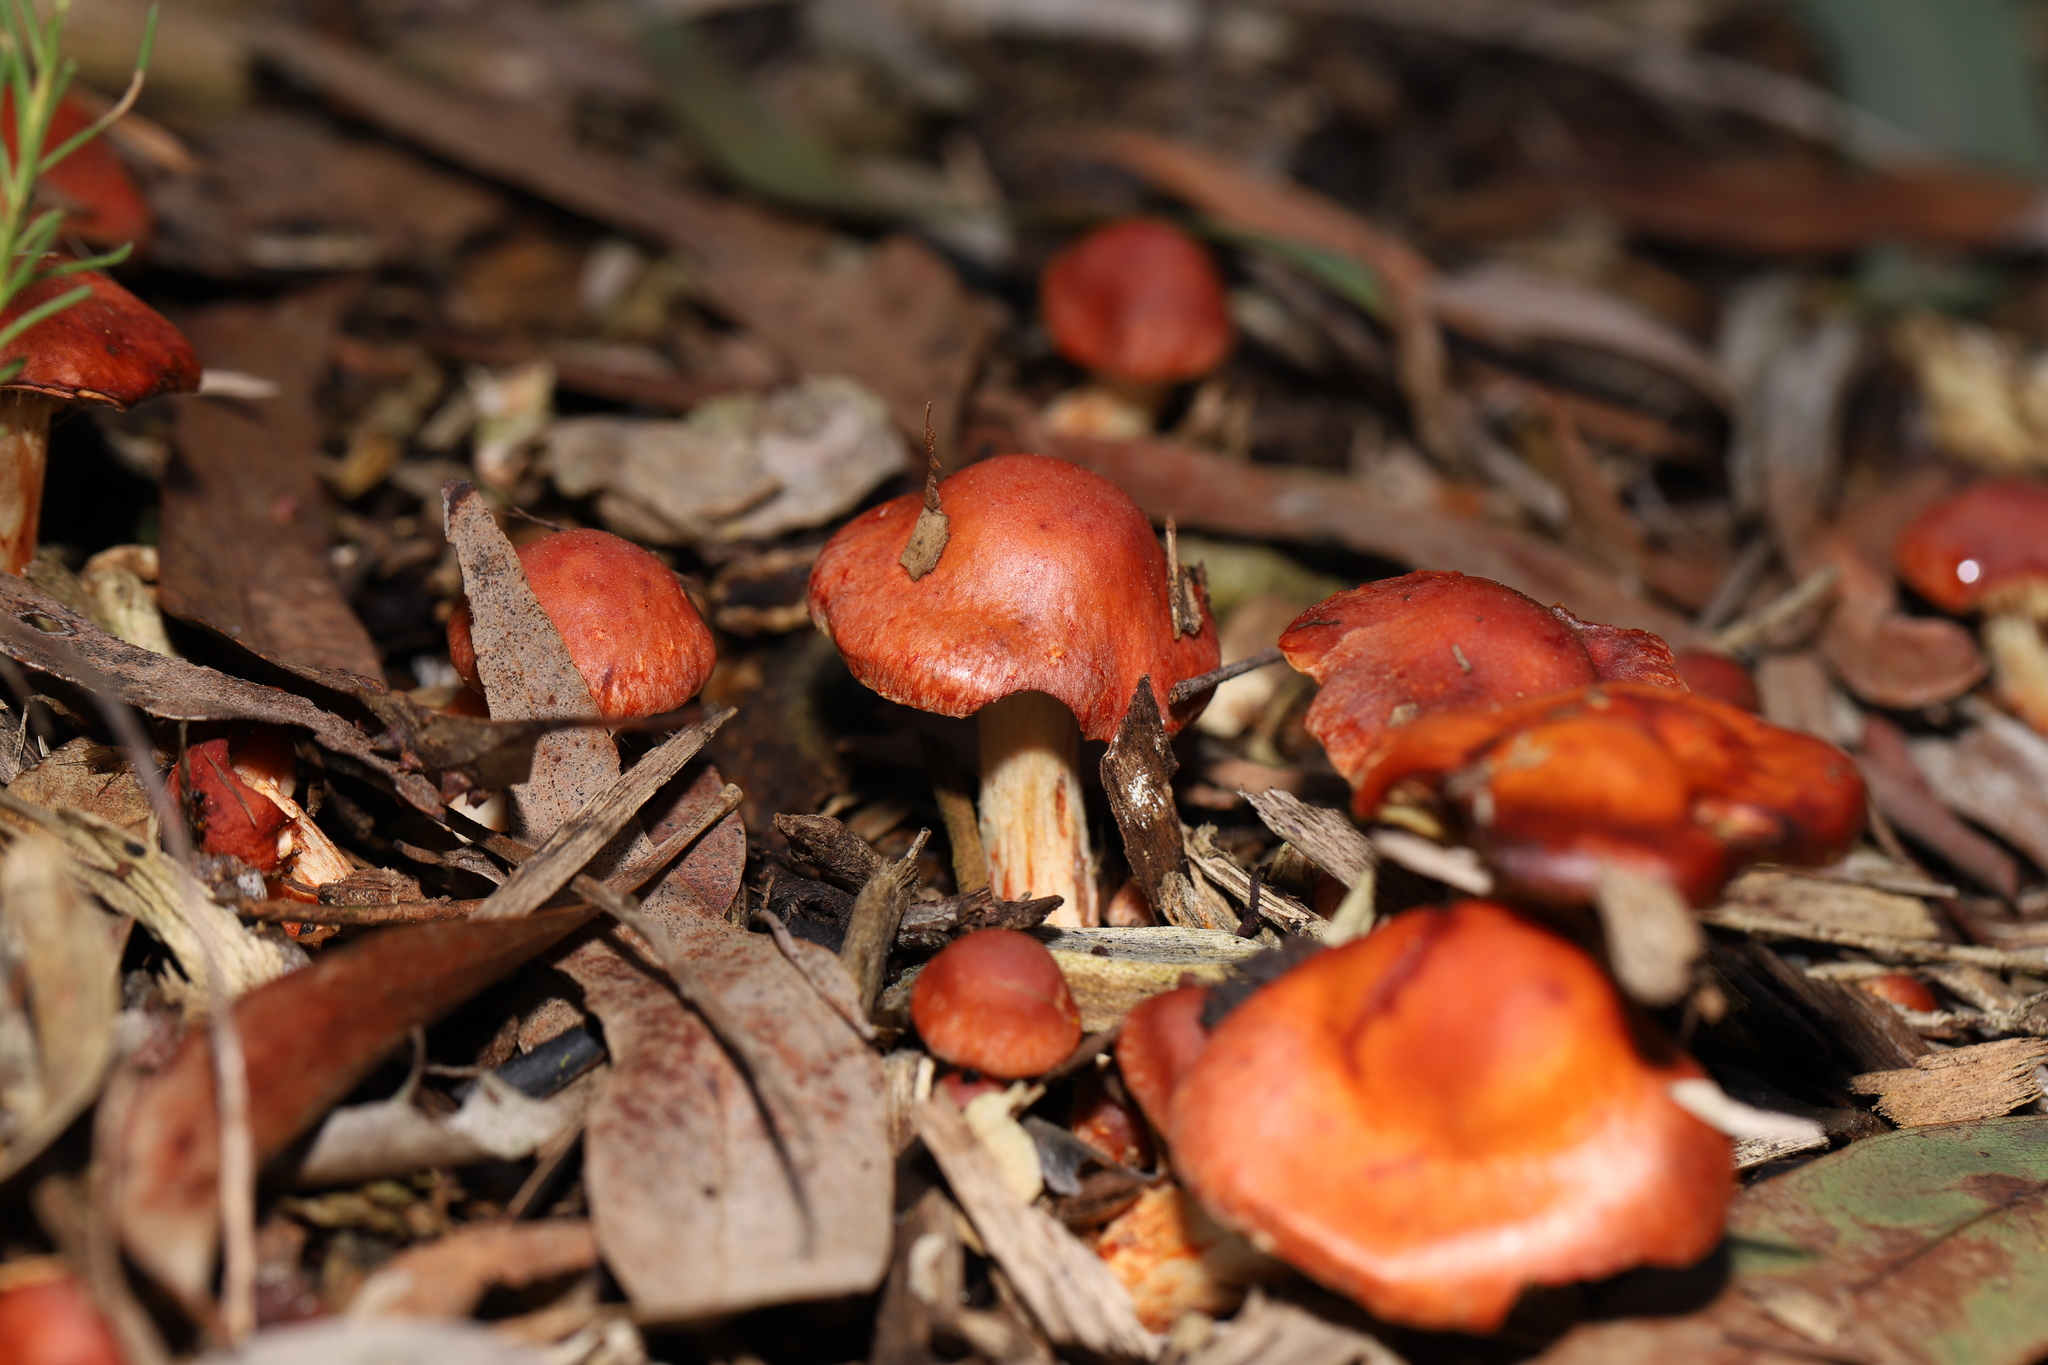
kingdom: Fungi
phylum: Basidiomycota
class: Agaricomycetes
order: Agaricales
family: Strophariaceae
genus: Leratiomyces
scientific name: Leratiomyces ceres
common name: Redlead roundhead
